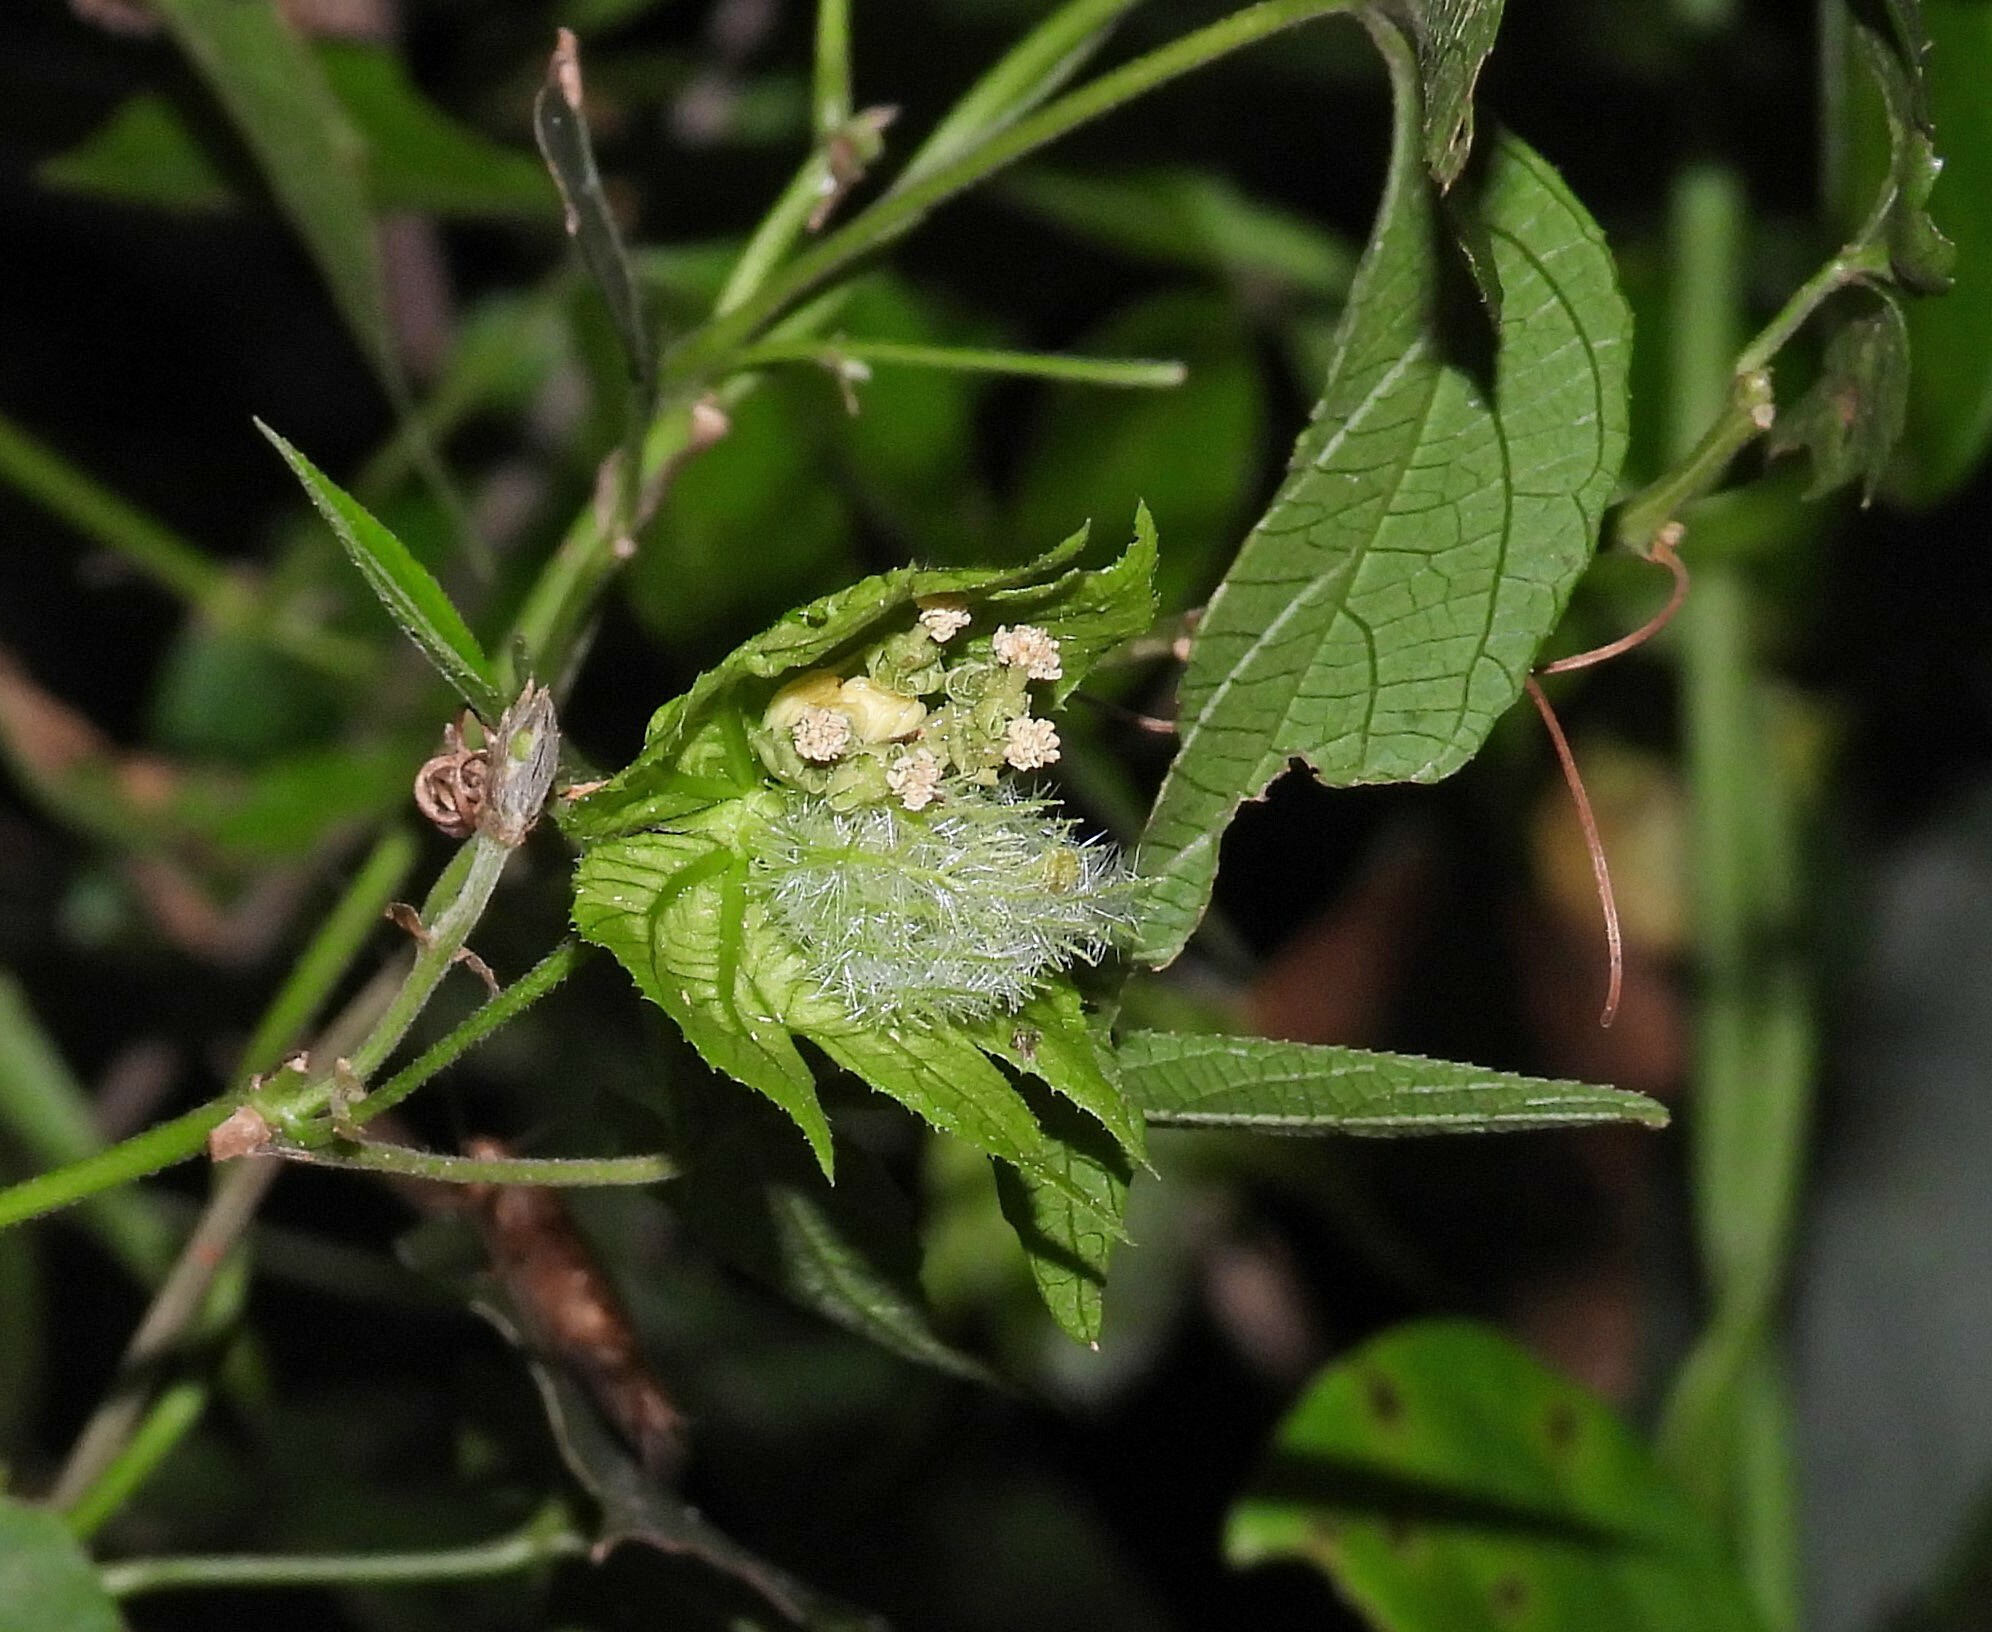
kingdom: Plantae
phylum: Tracheophyta
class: Magnoliopsida
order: Malpighiales
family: Euphorbiaceae
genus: Dalechampia
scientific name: Dalechampia stenosepala
